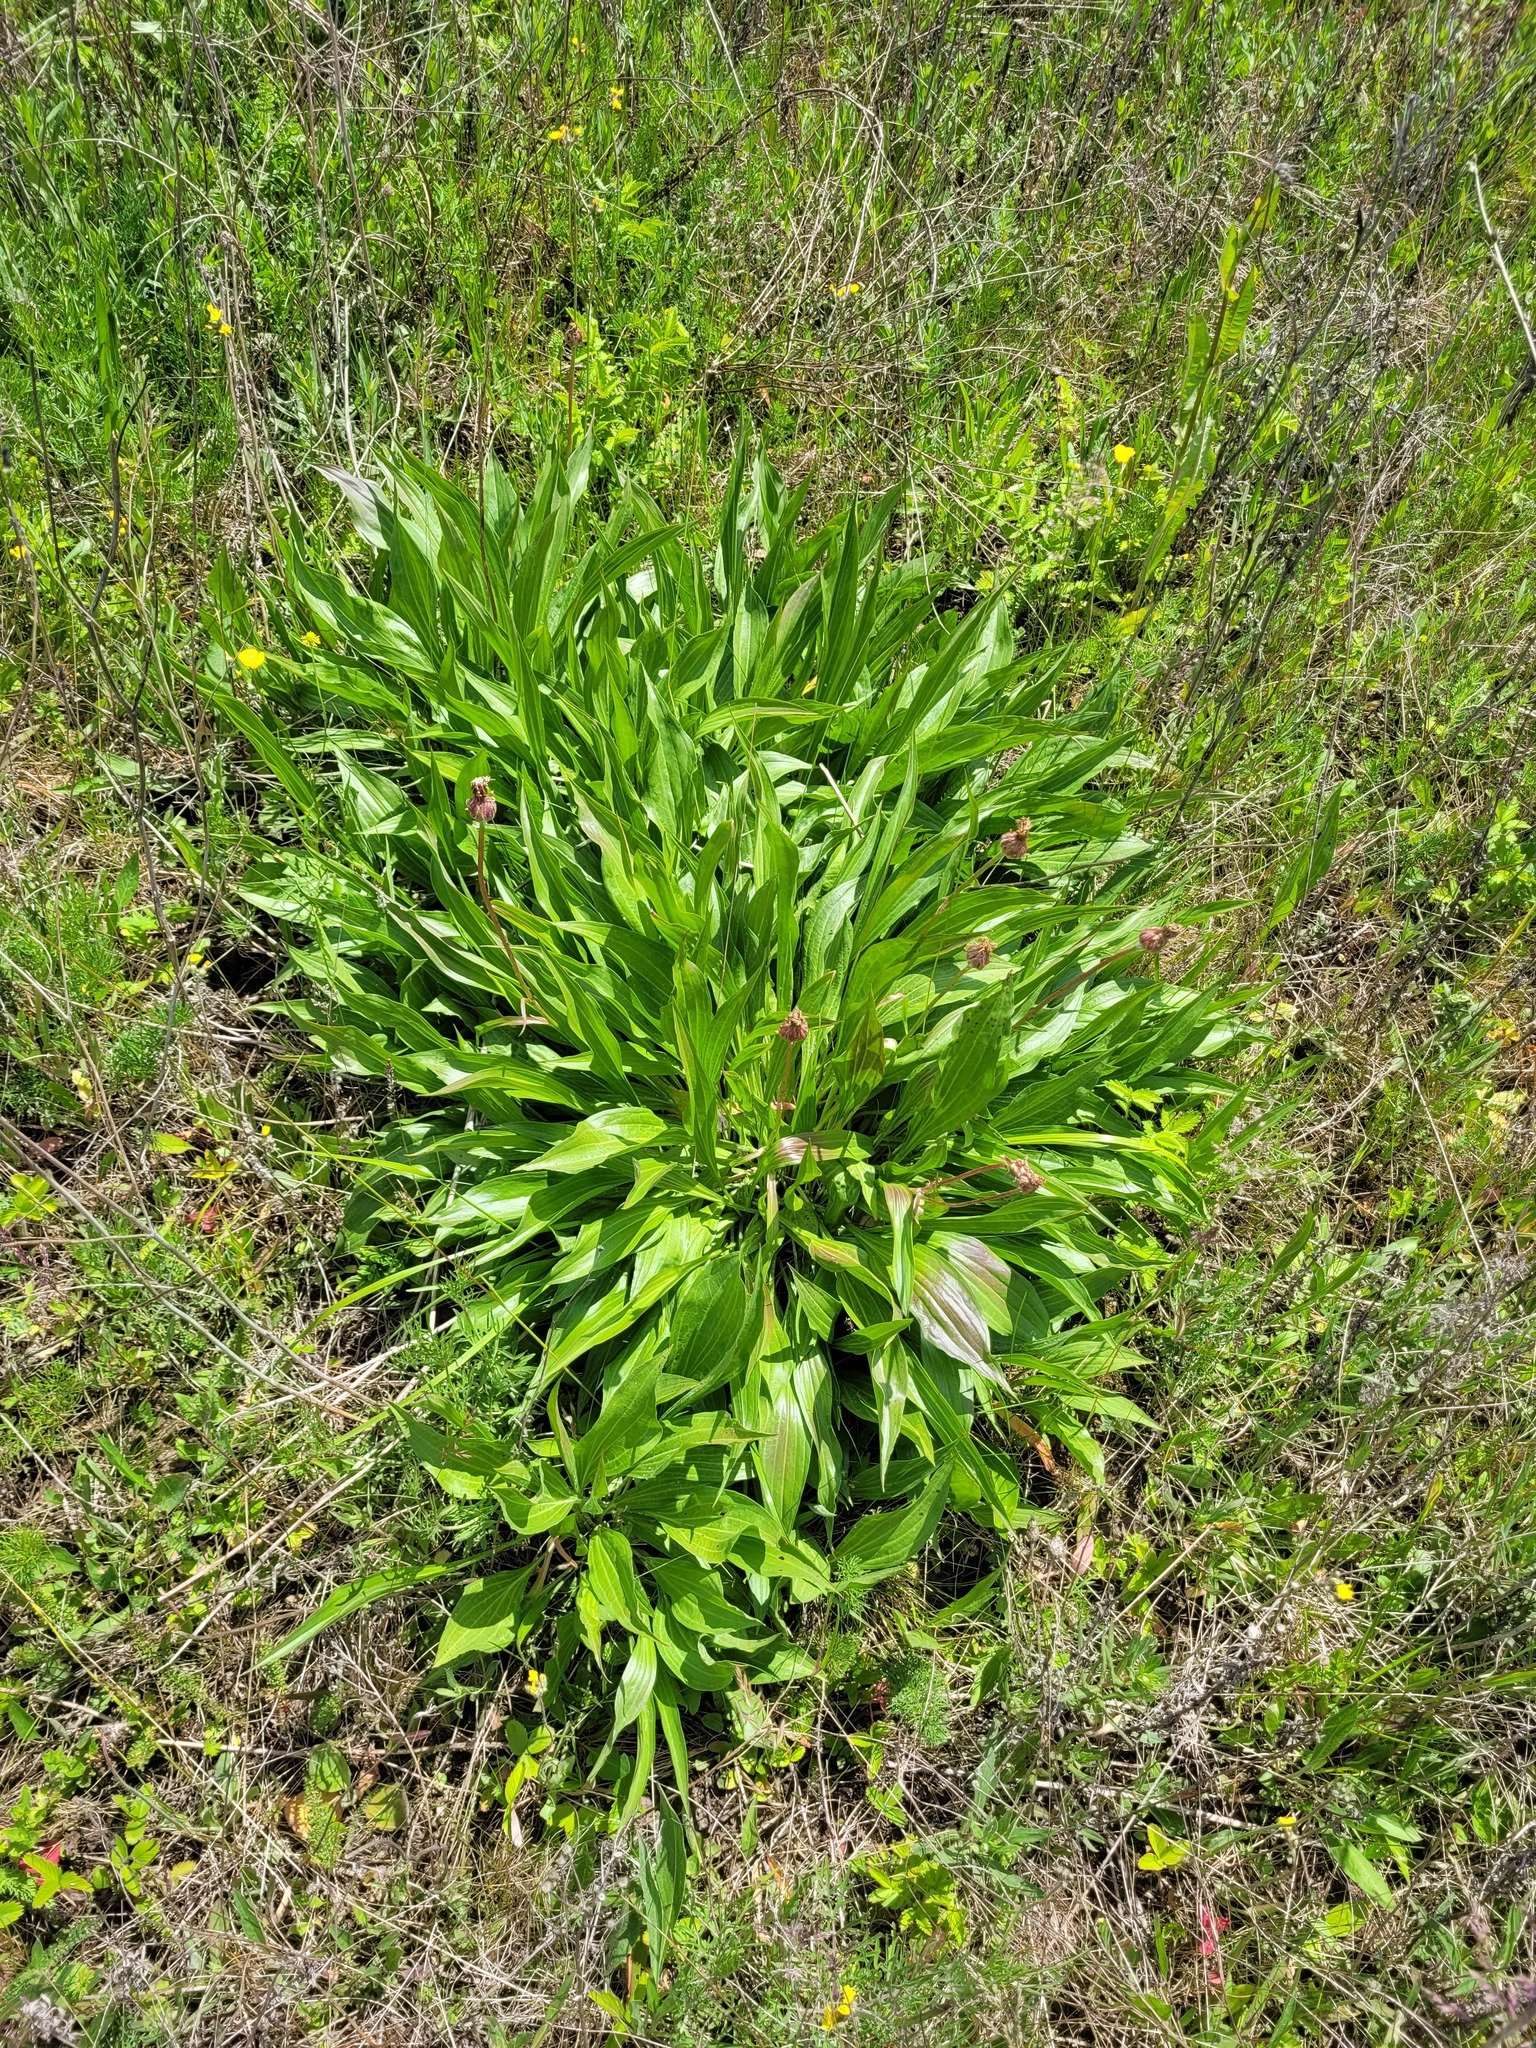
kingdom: Plantae
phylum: Tracheophyta
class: Magnoliopsida
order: Asterales
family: Asteraceae
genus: Scorzonera
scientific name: Scorzonera humilis
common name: Viper's-grass
